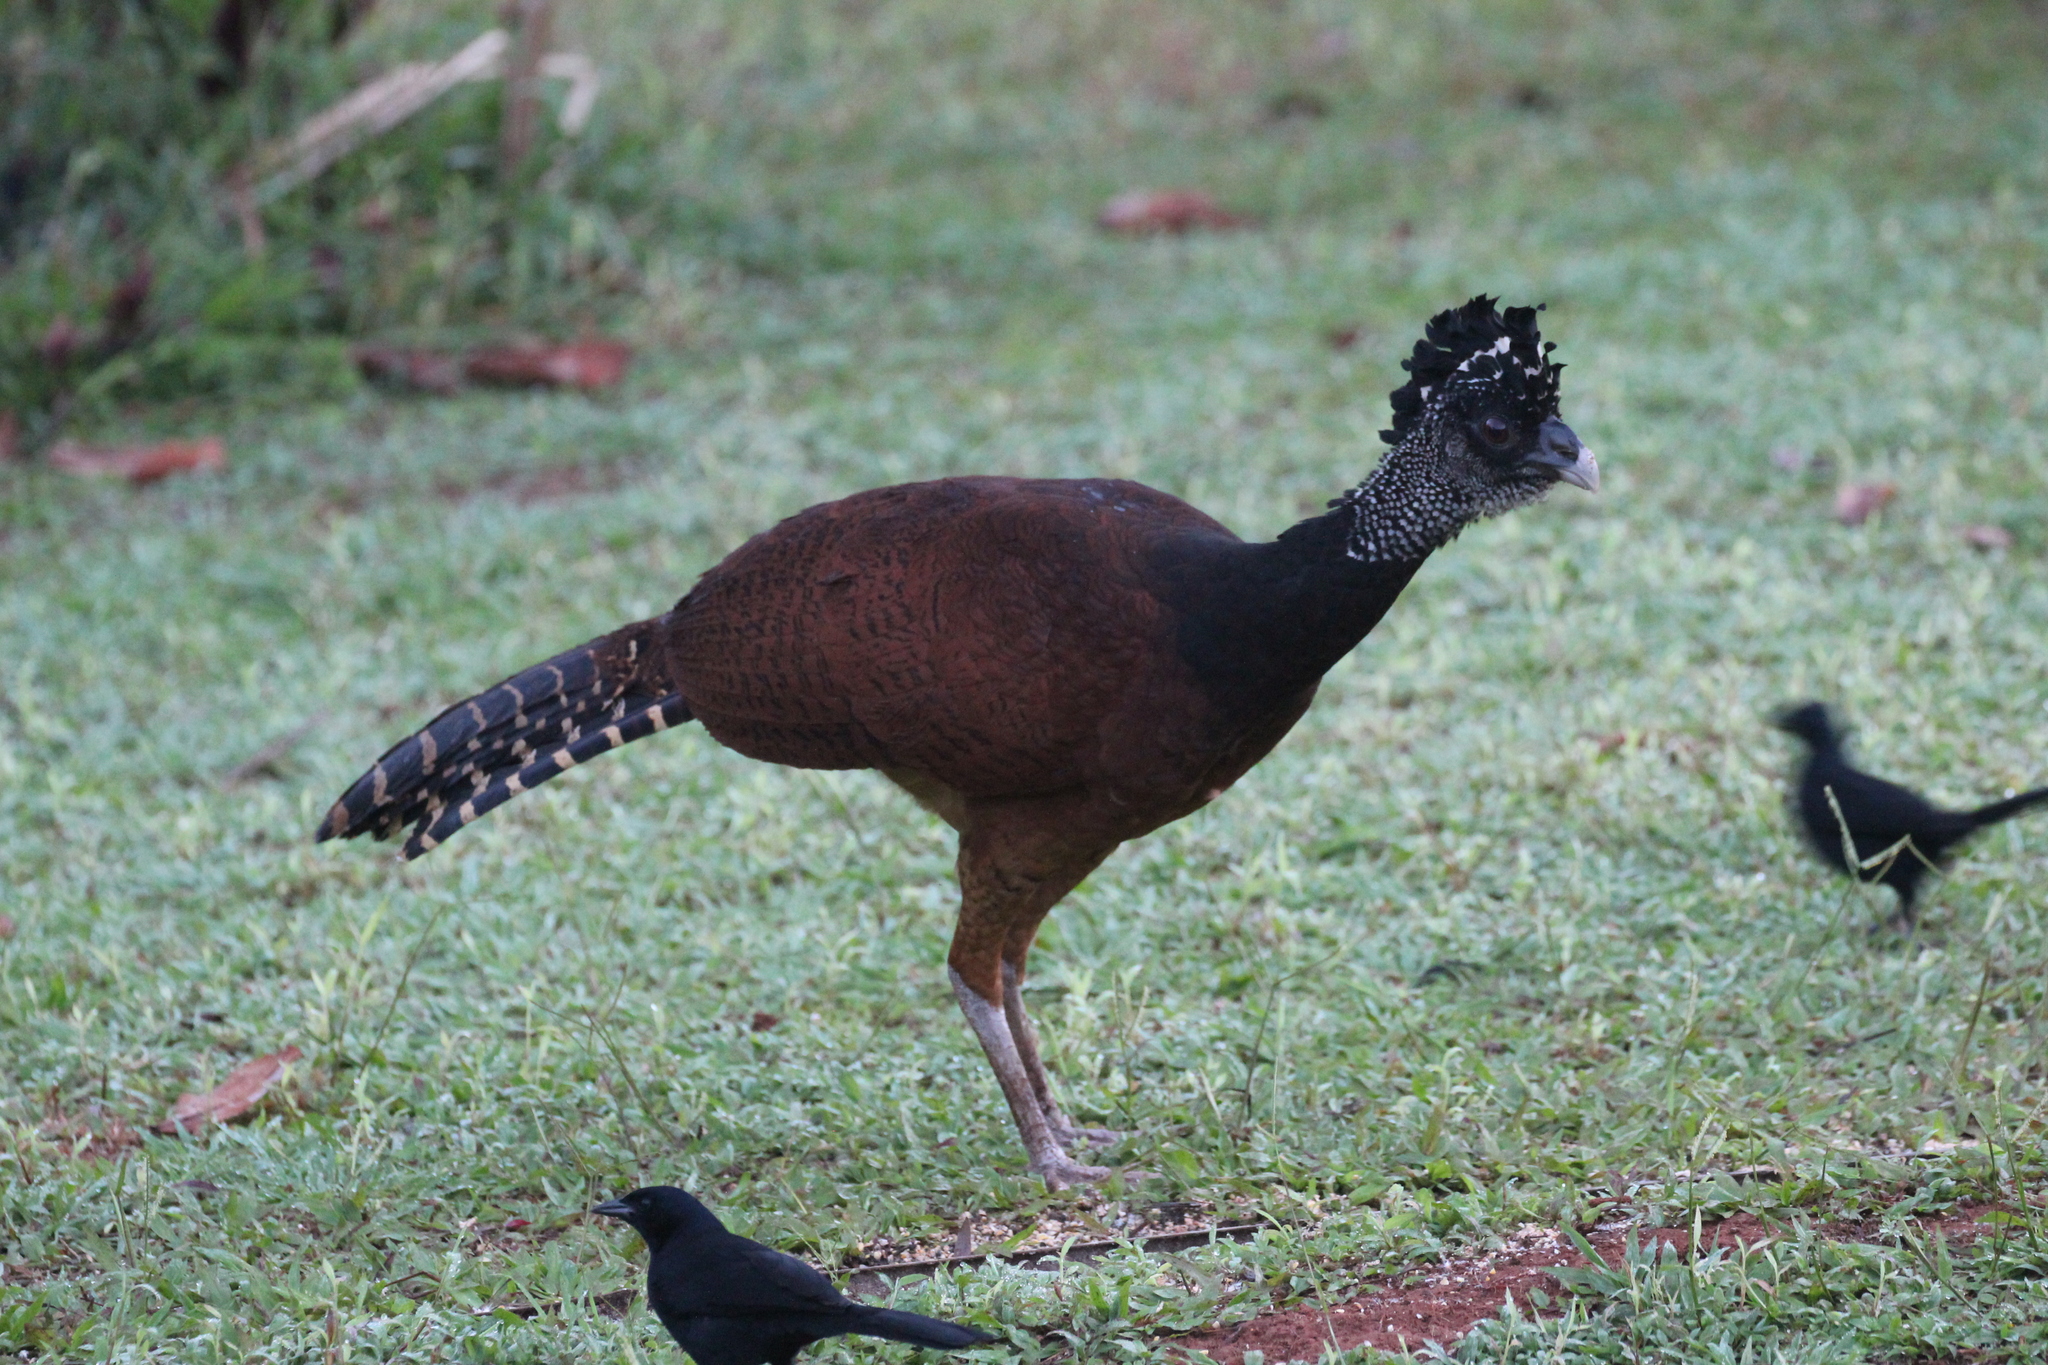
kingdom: Animalia
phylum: Chordata
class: Aves
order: Galliformes
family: Cracidae
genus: Crax
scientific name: Crax rubra
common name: Great curassow
